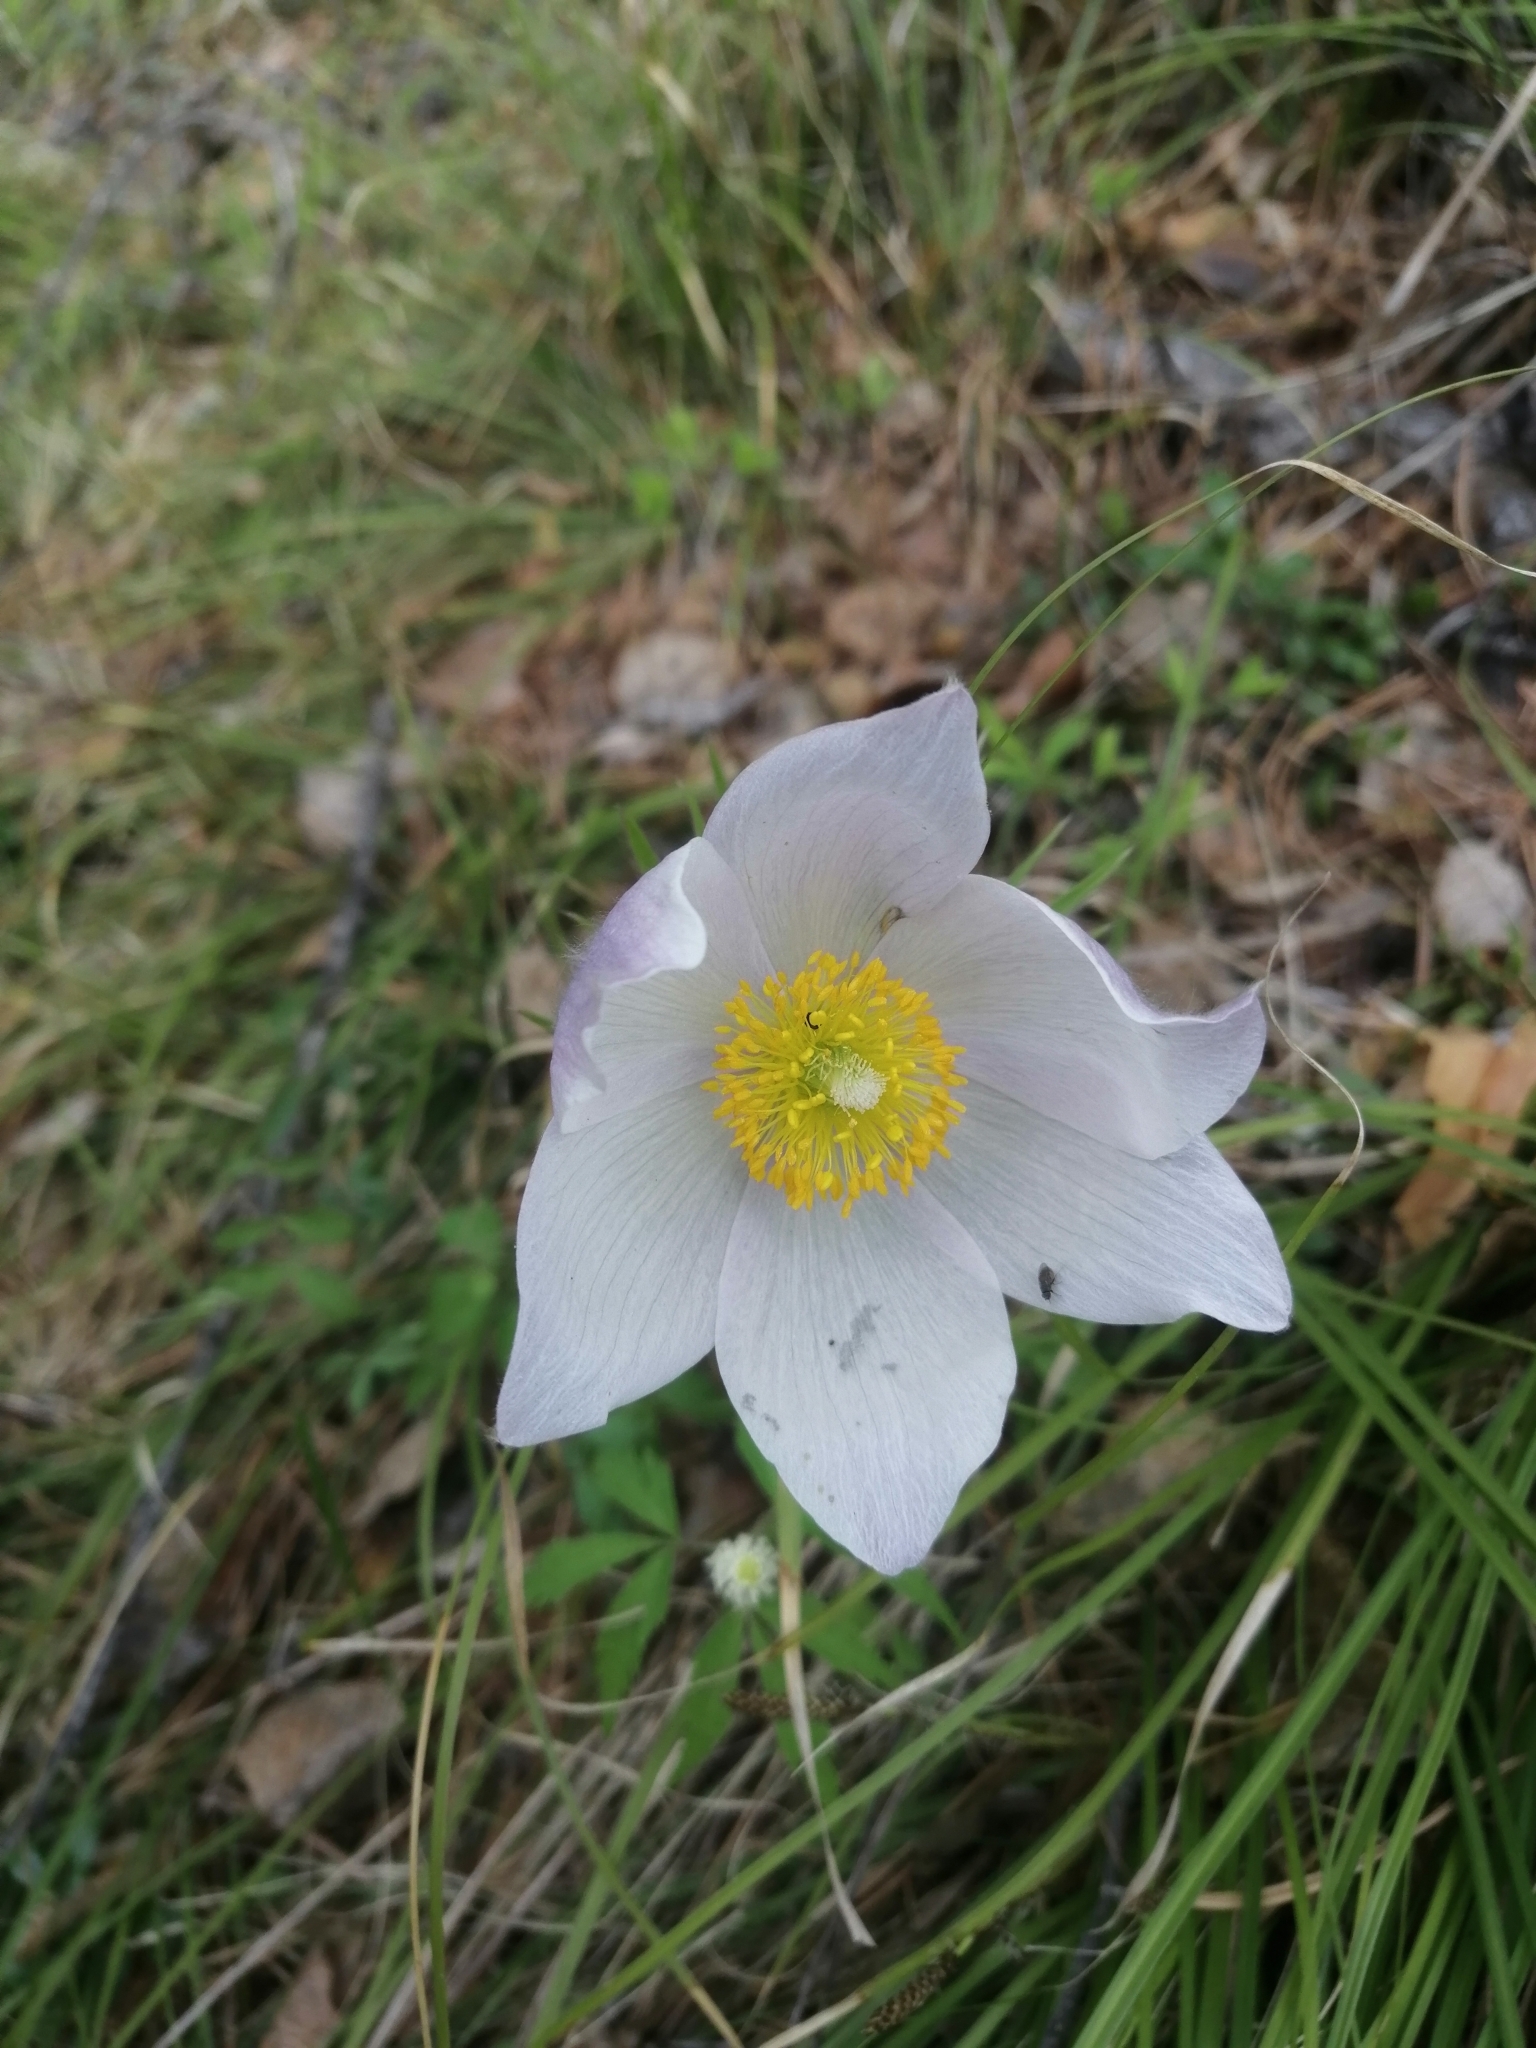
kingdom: Plantae
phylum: Tracheophyta
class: Magnoliopsida
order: Ranunculales
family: Ranunculaceae
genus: Pulsatilla
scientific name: Pulsatilla patens
